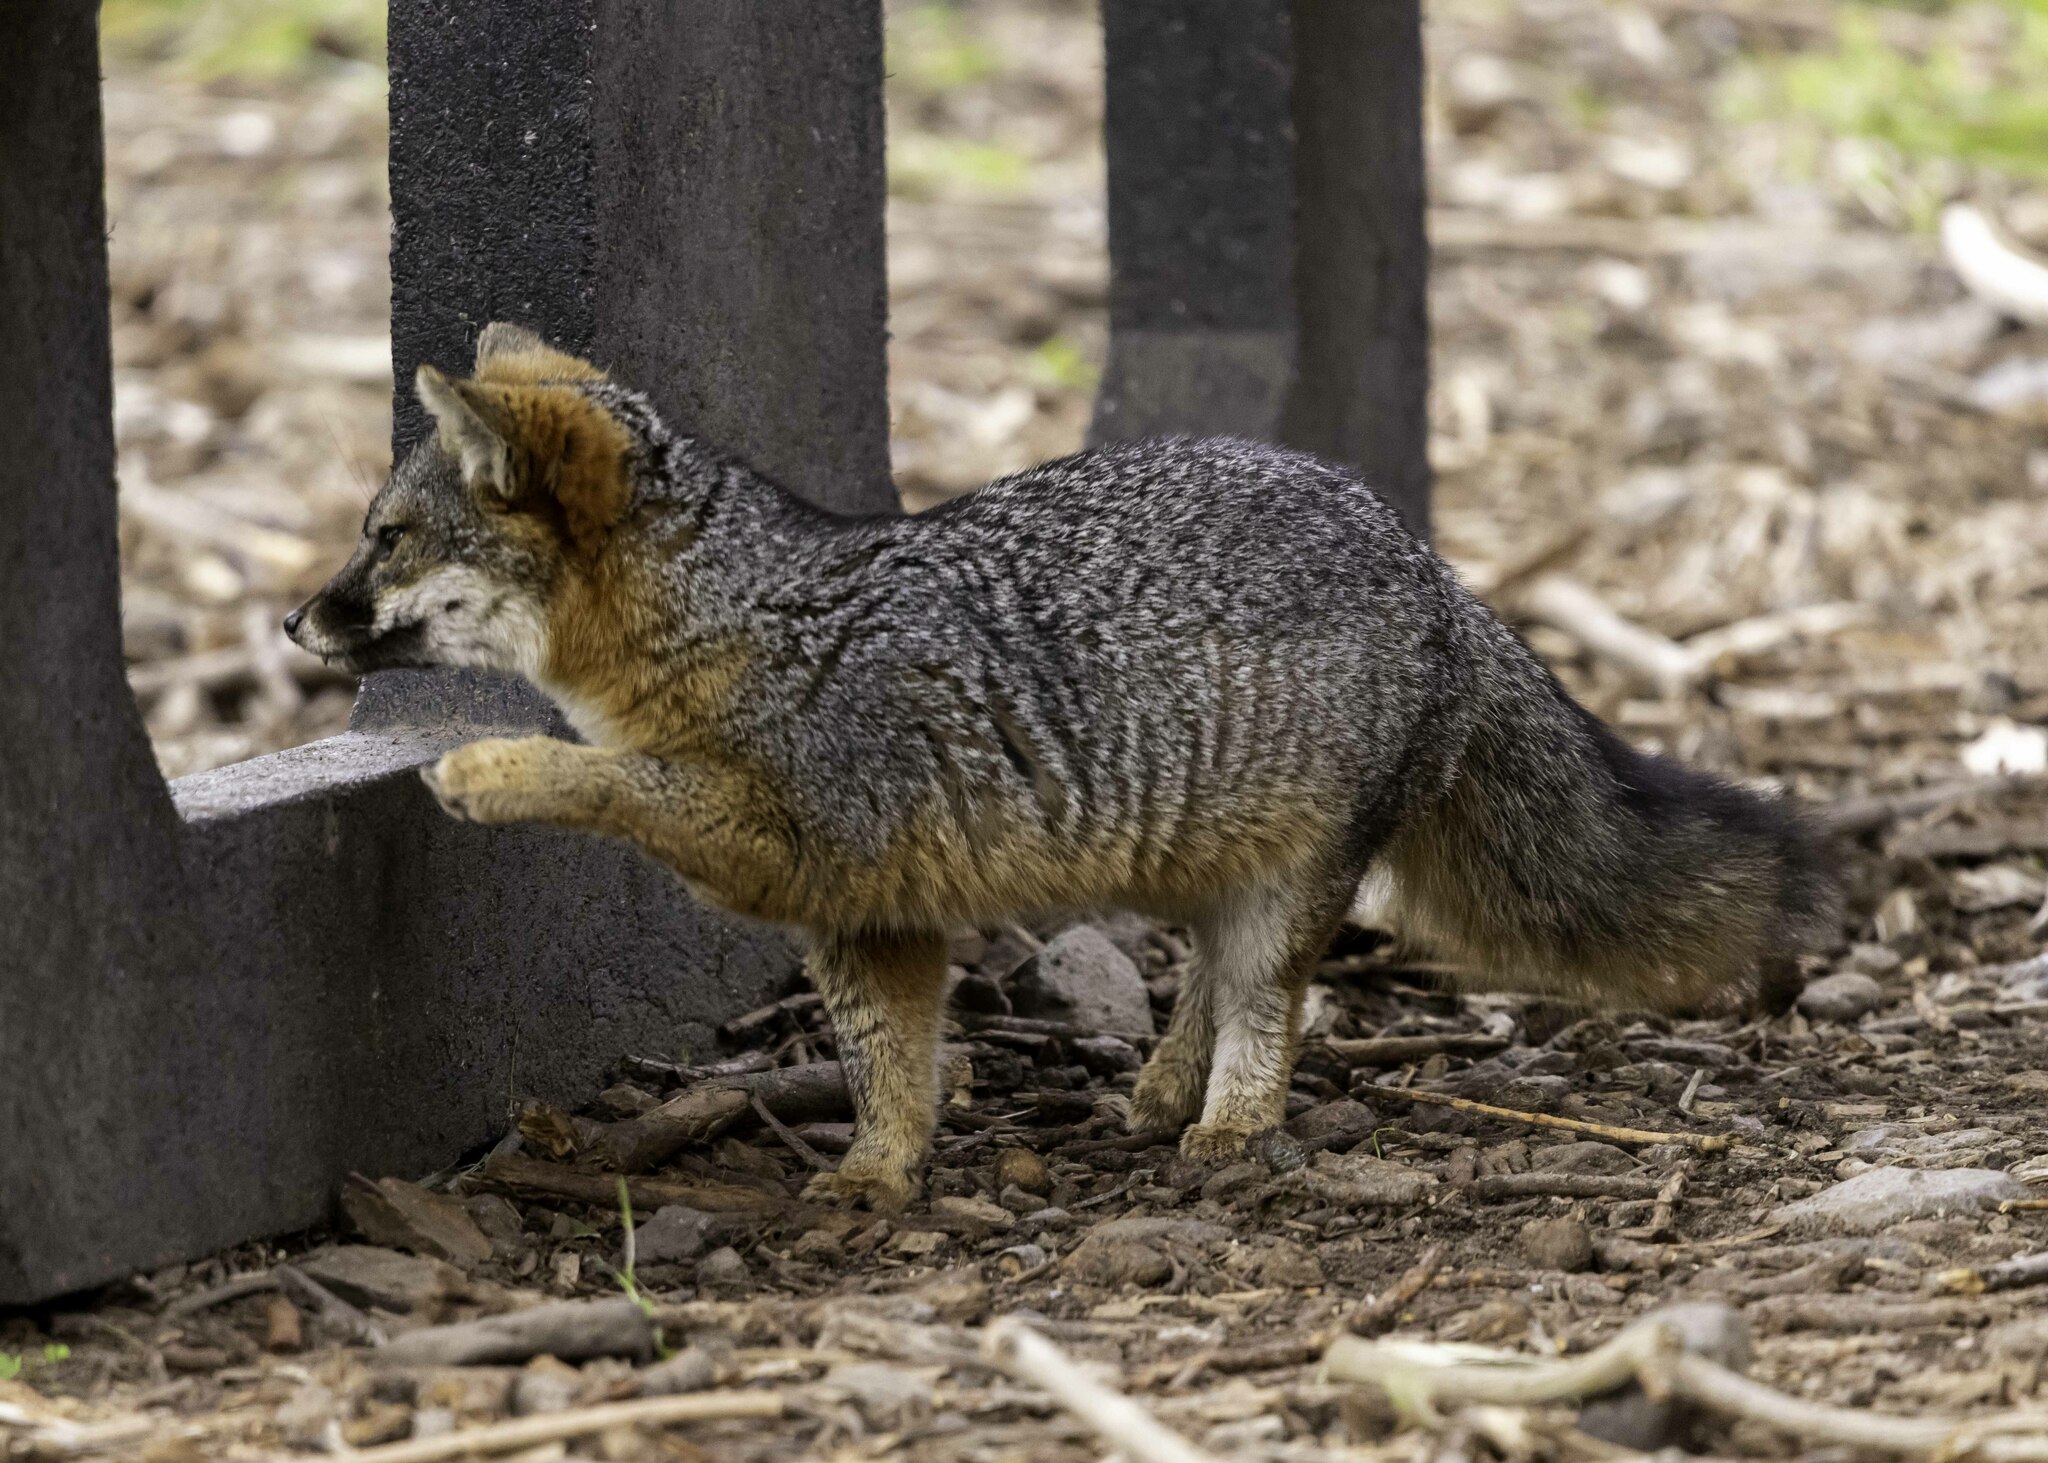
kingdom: Animalia
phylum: Chordata
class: Mammalia
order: Carnivora
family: Canidae
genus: Urocyon
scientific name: Urocyon littoralis
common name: Island gray fox
